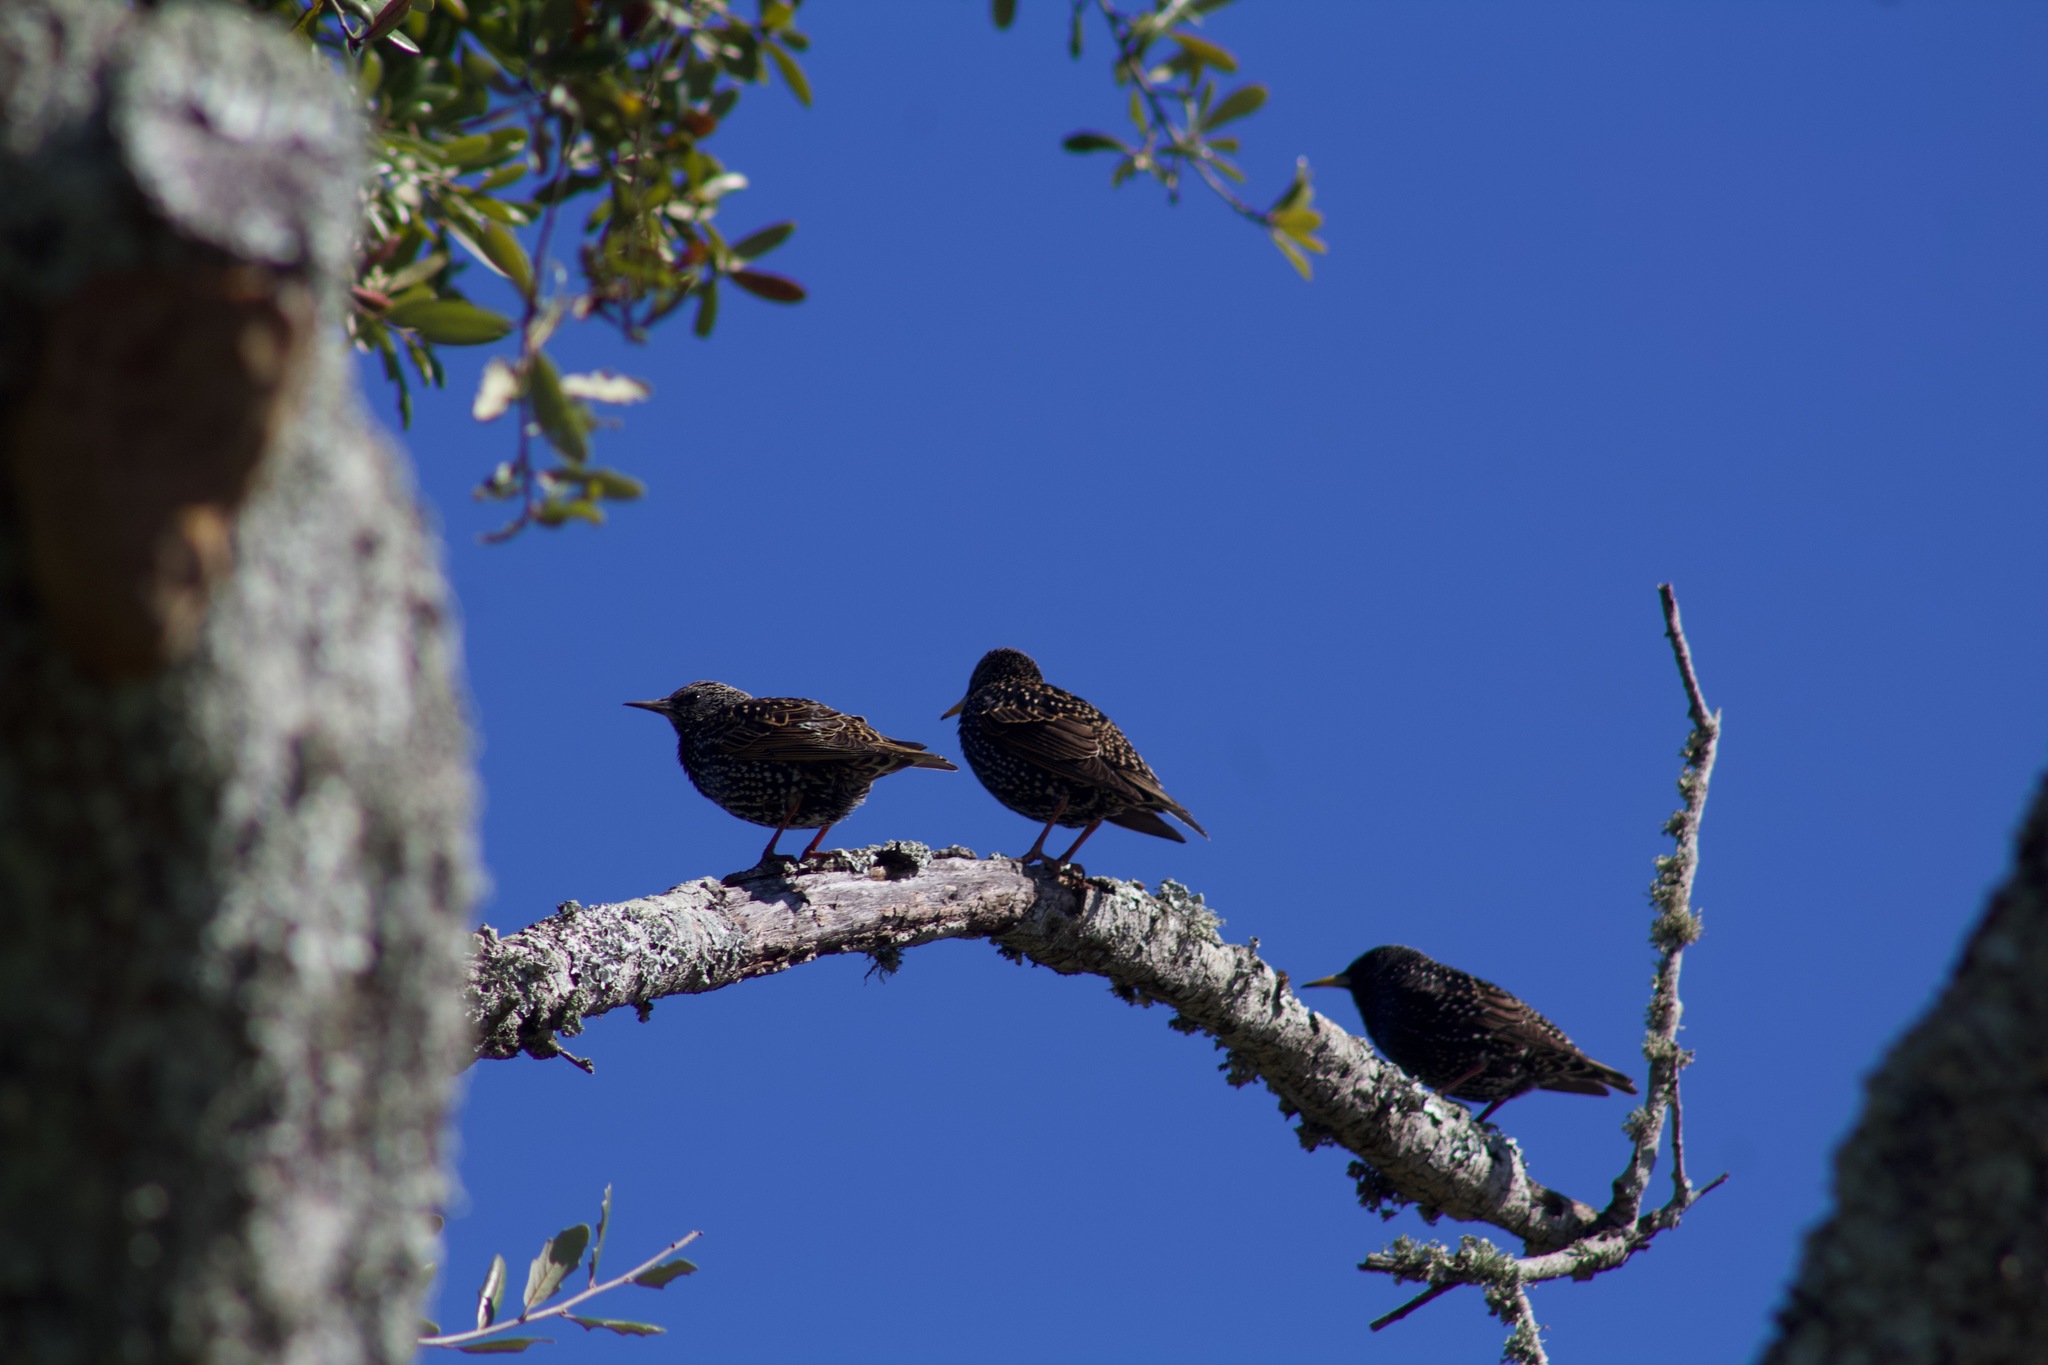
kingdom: Animalia
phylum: Chordata
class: Aves
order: Passeriformes
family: Sturnidae
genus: Sturnus
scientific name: Sturnus vulgaris
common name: Common starling
